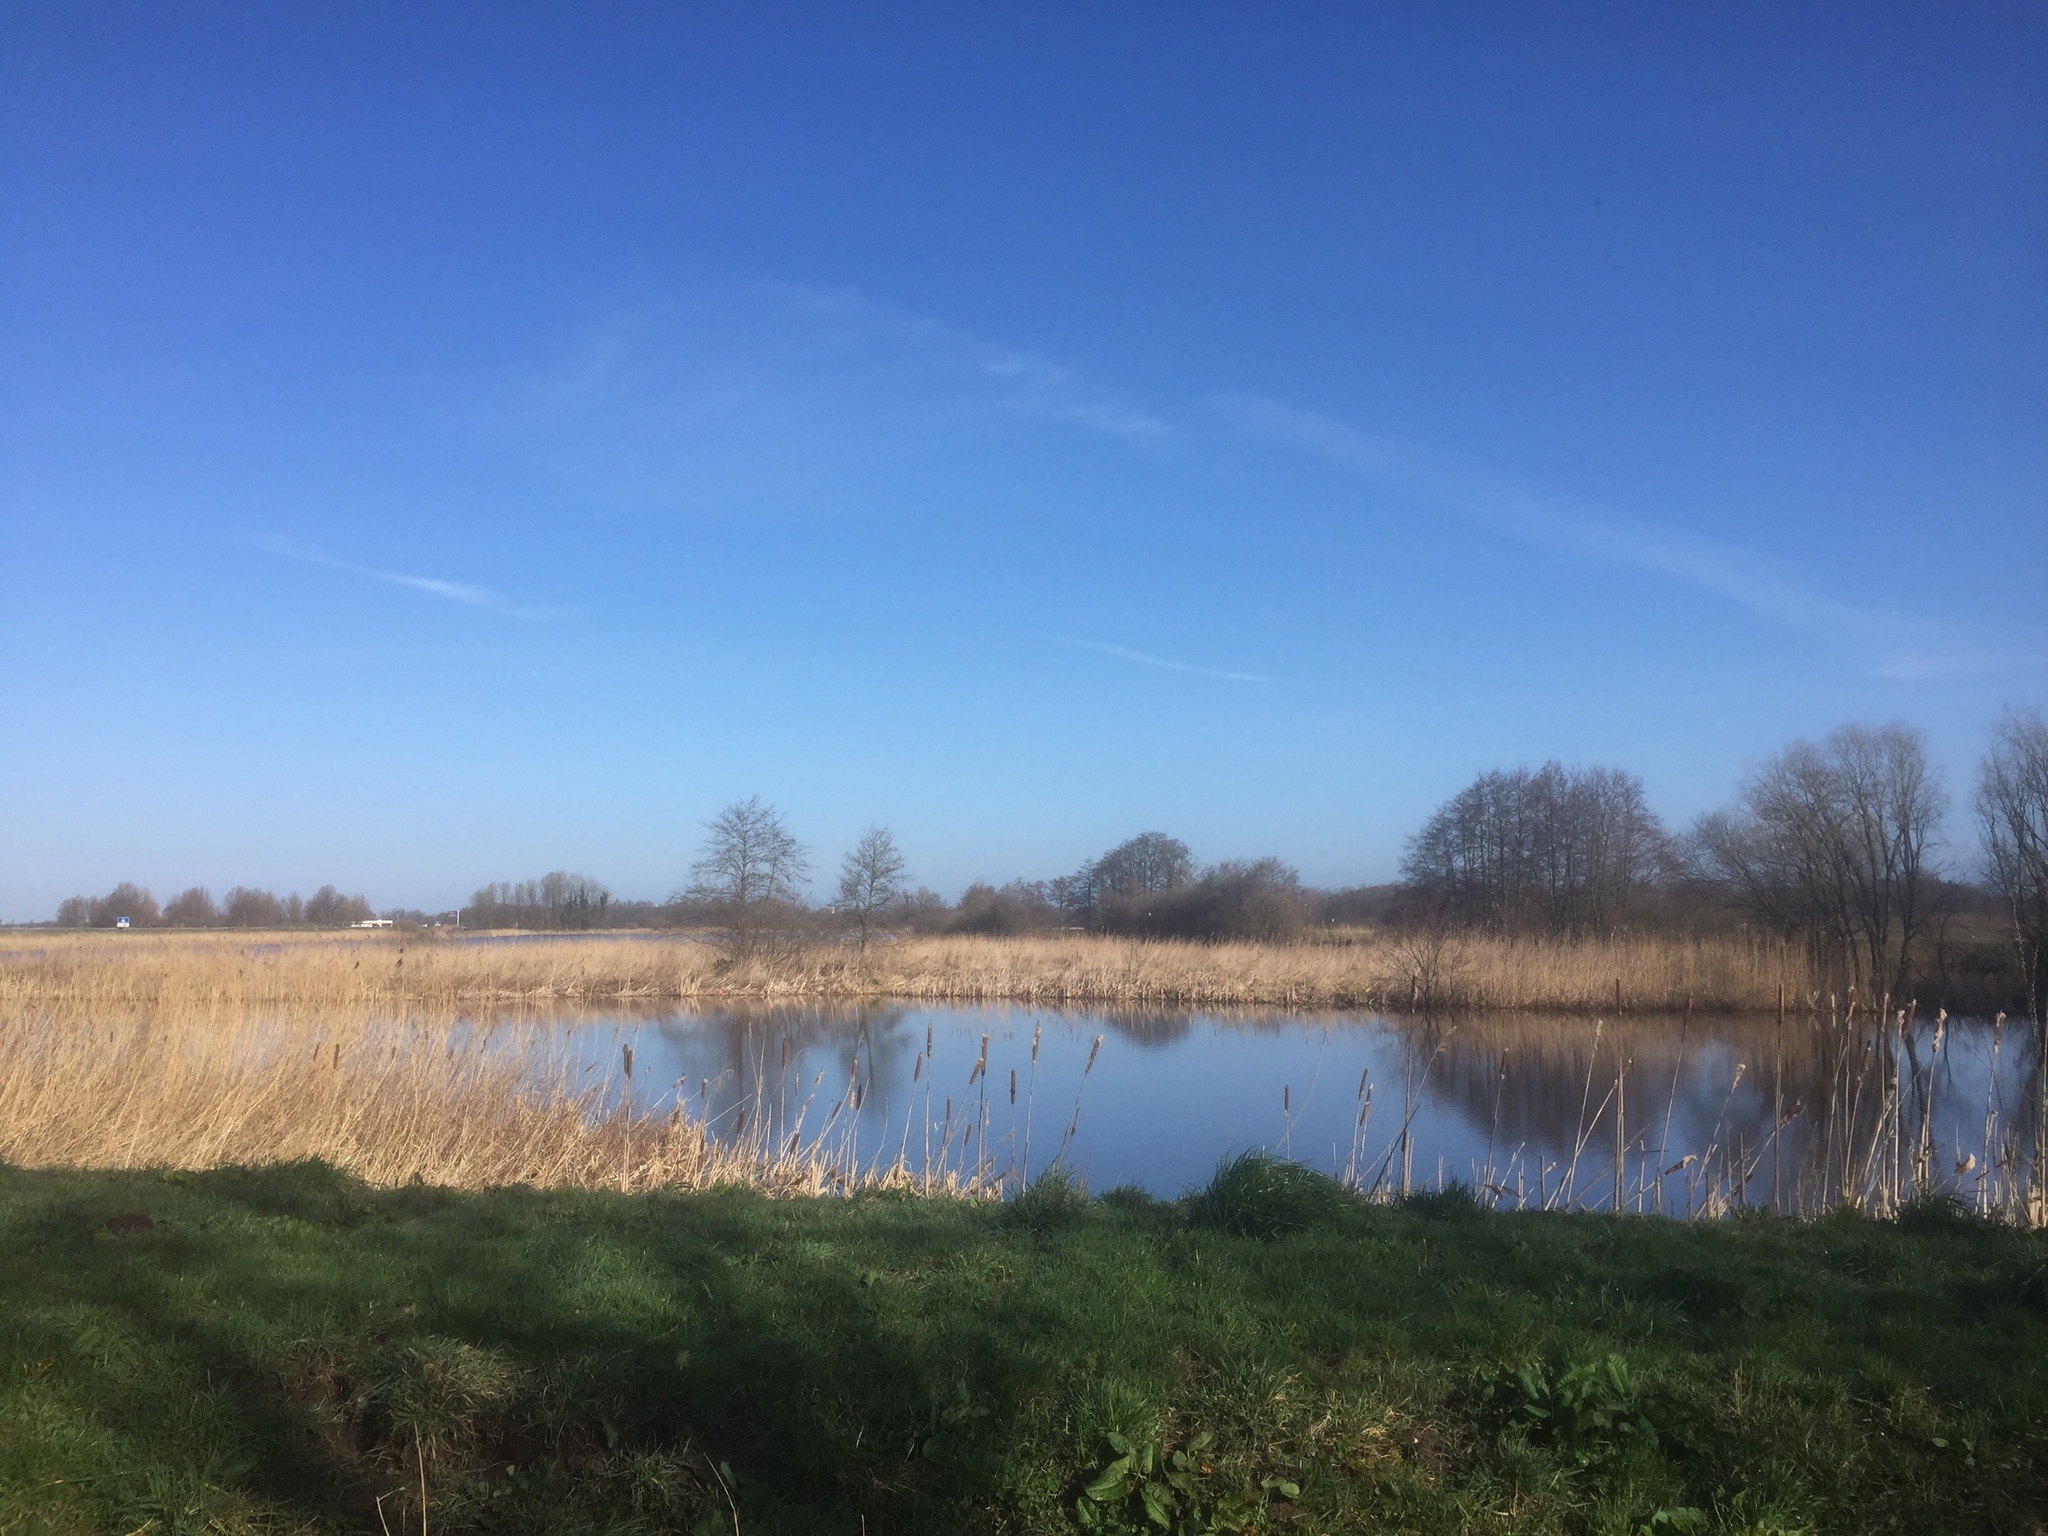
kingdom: Plantae
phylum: Tracheophyta
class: Liliopsida
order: Poales
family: Poaceae
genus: Phragmites
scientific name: Phragmites australis
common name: Common reed
